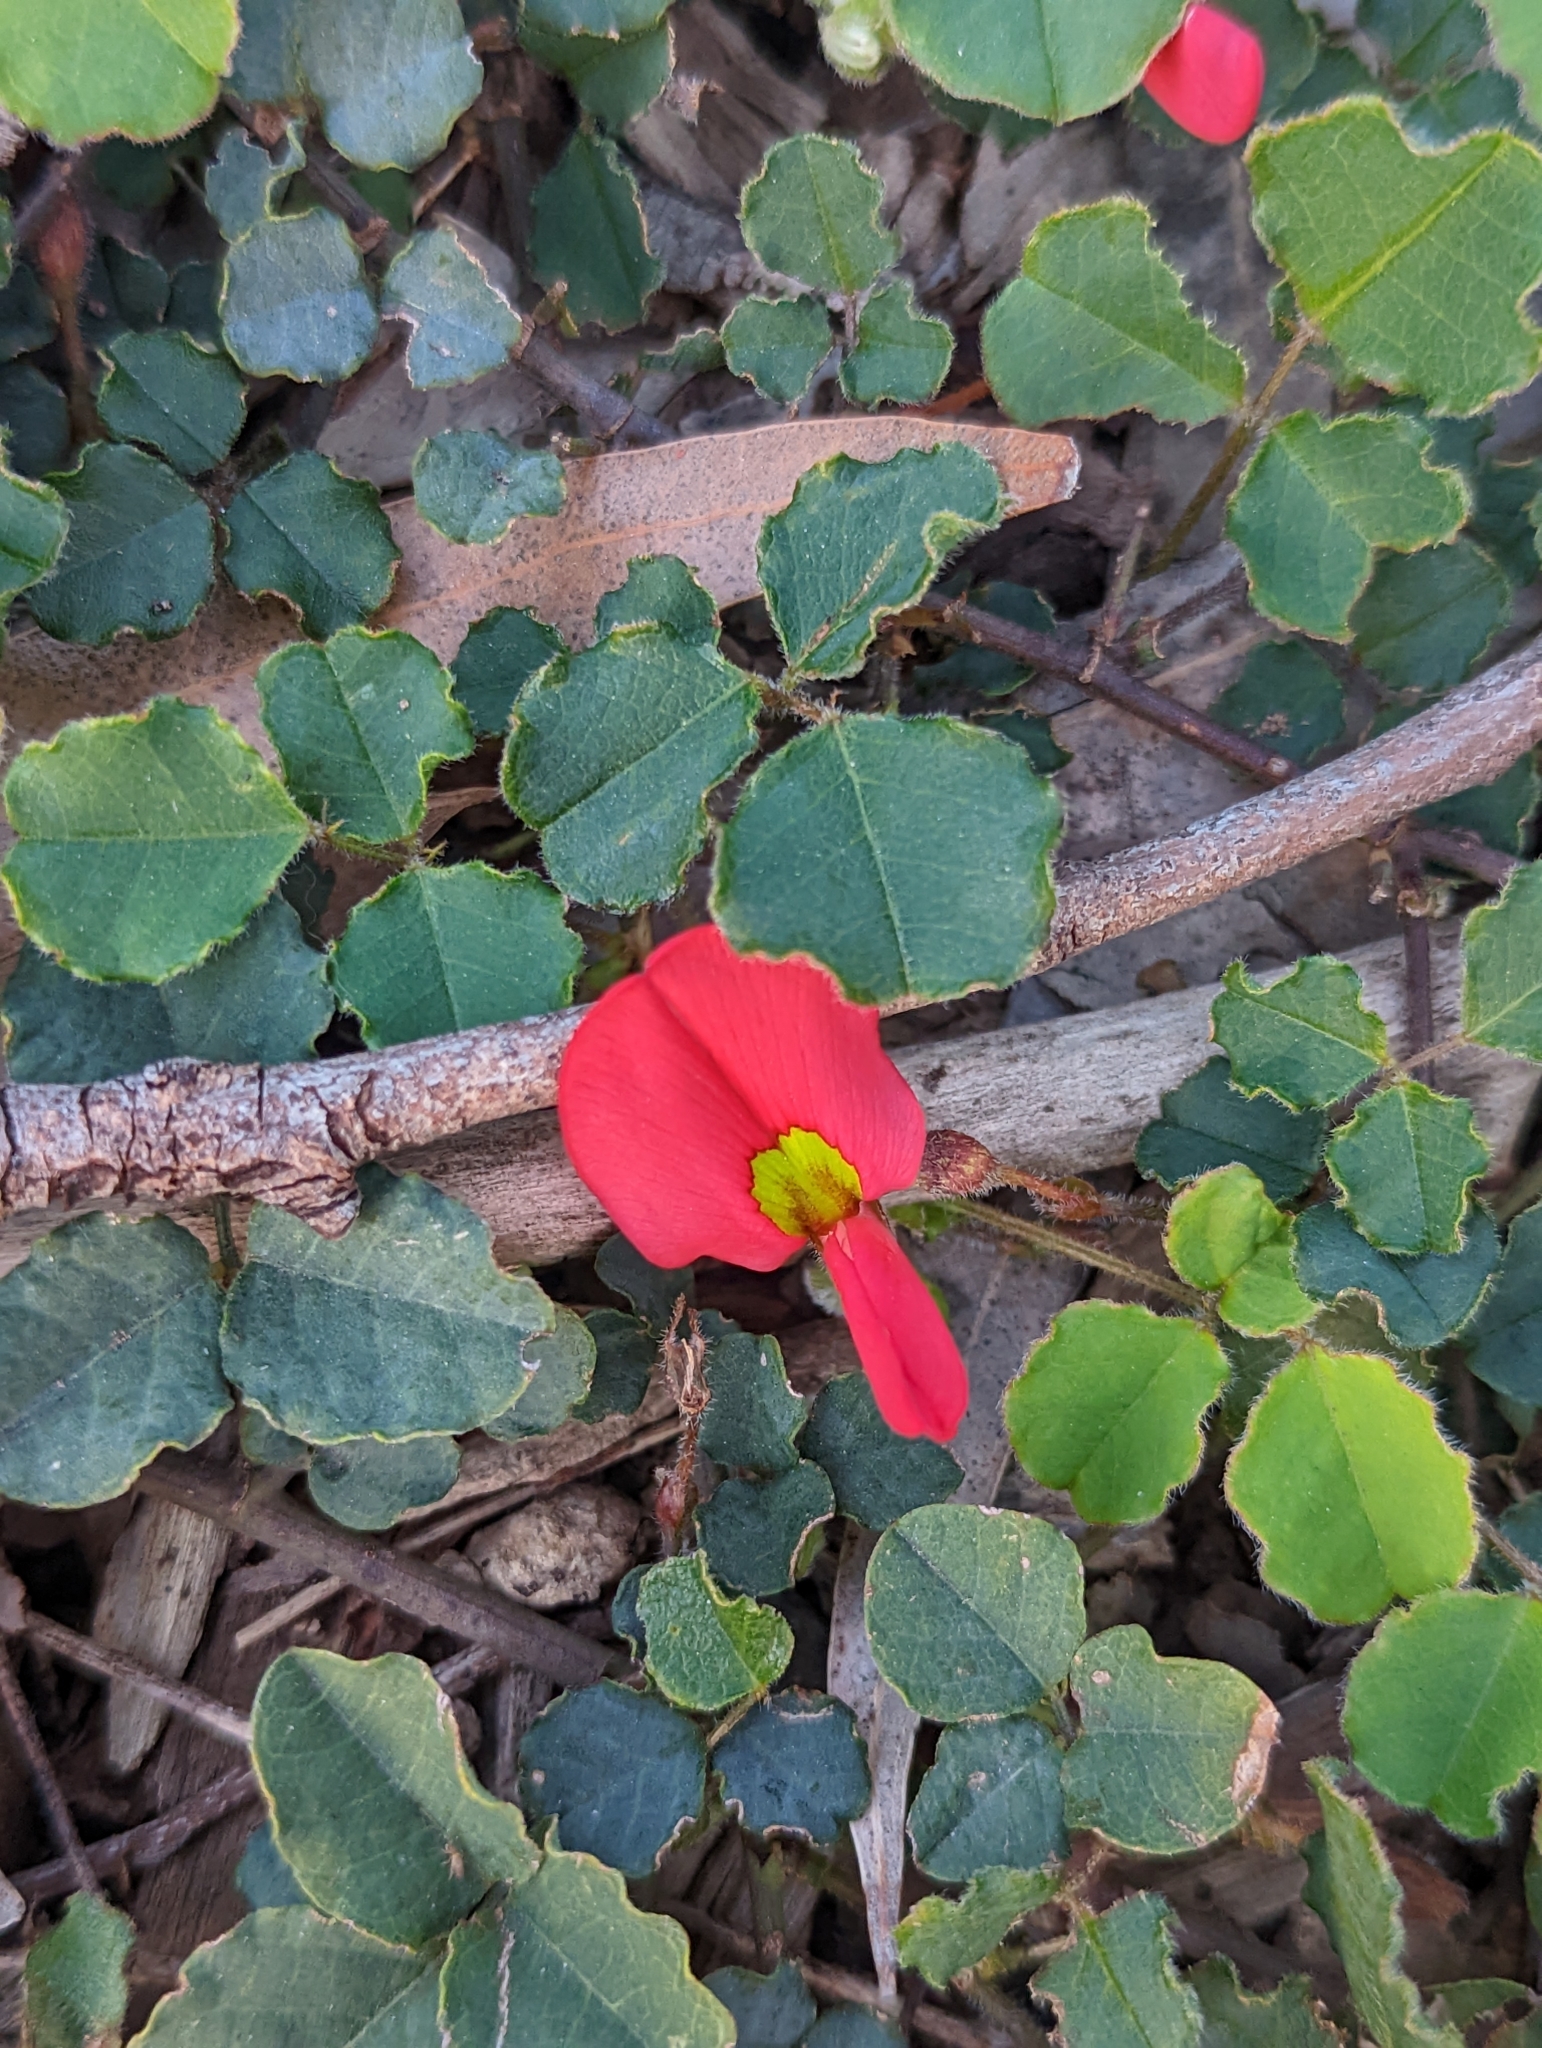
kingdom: Plantae
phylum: Tracheophyta
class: Magnoliopsida
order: Fabales
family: Fabaceae
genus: Kennedia
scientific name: Kennedia prostrata
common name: Running-postman
